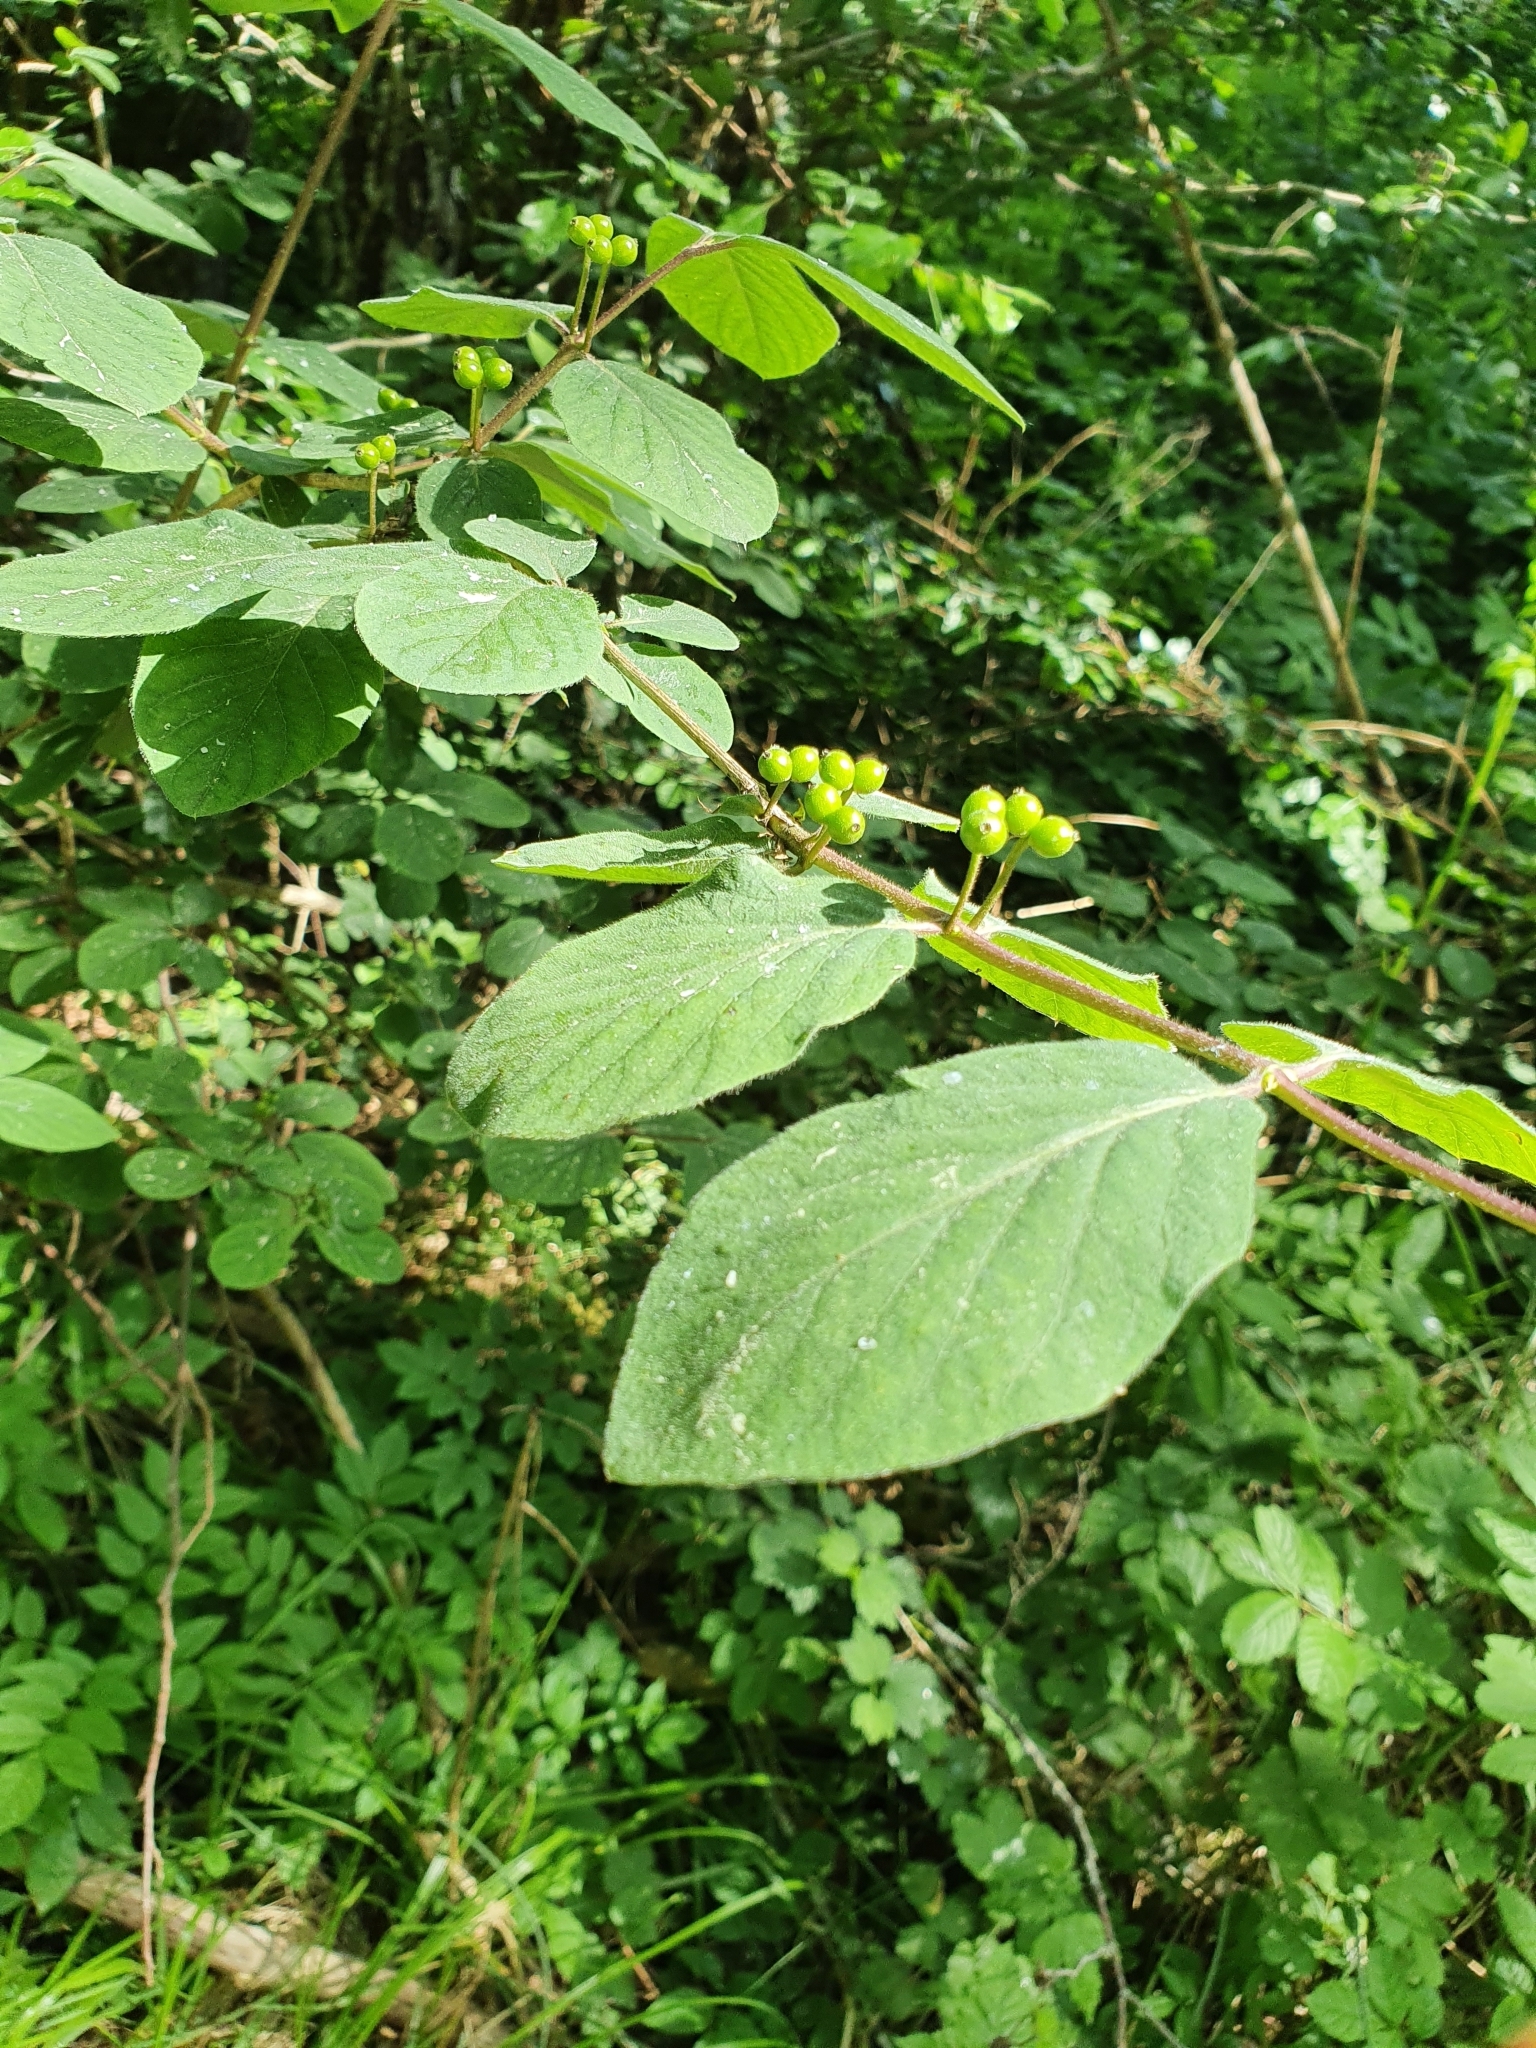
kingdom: Plantae
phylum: Tracheophyta
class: Magnoliopsida
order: Dipsacales
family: Caprifoliaceae
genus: Lonicera
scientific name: Lonicera xylosteum
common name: Fly honeysuckle
